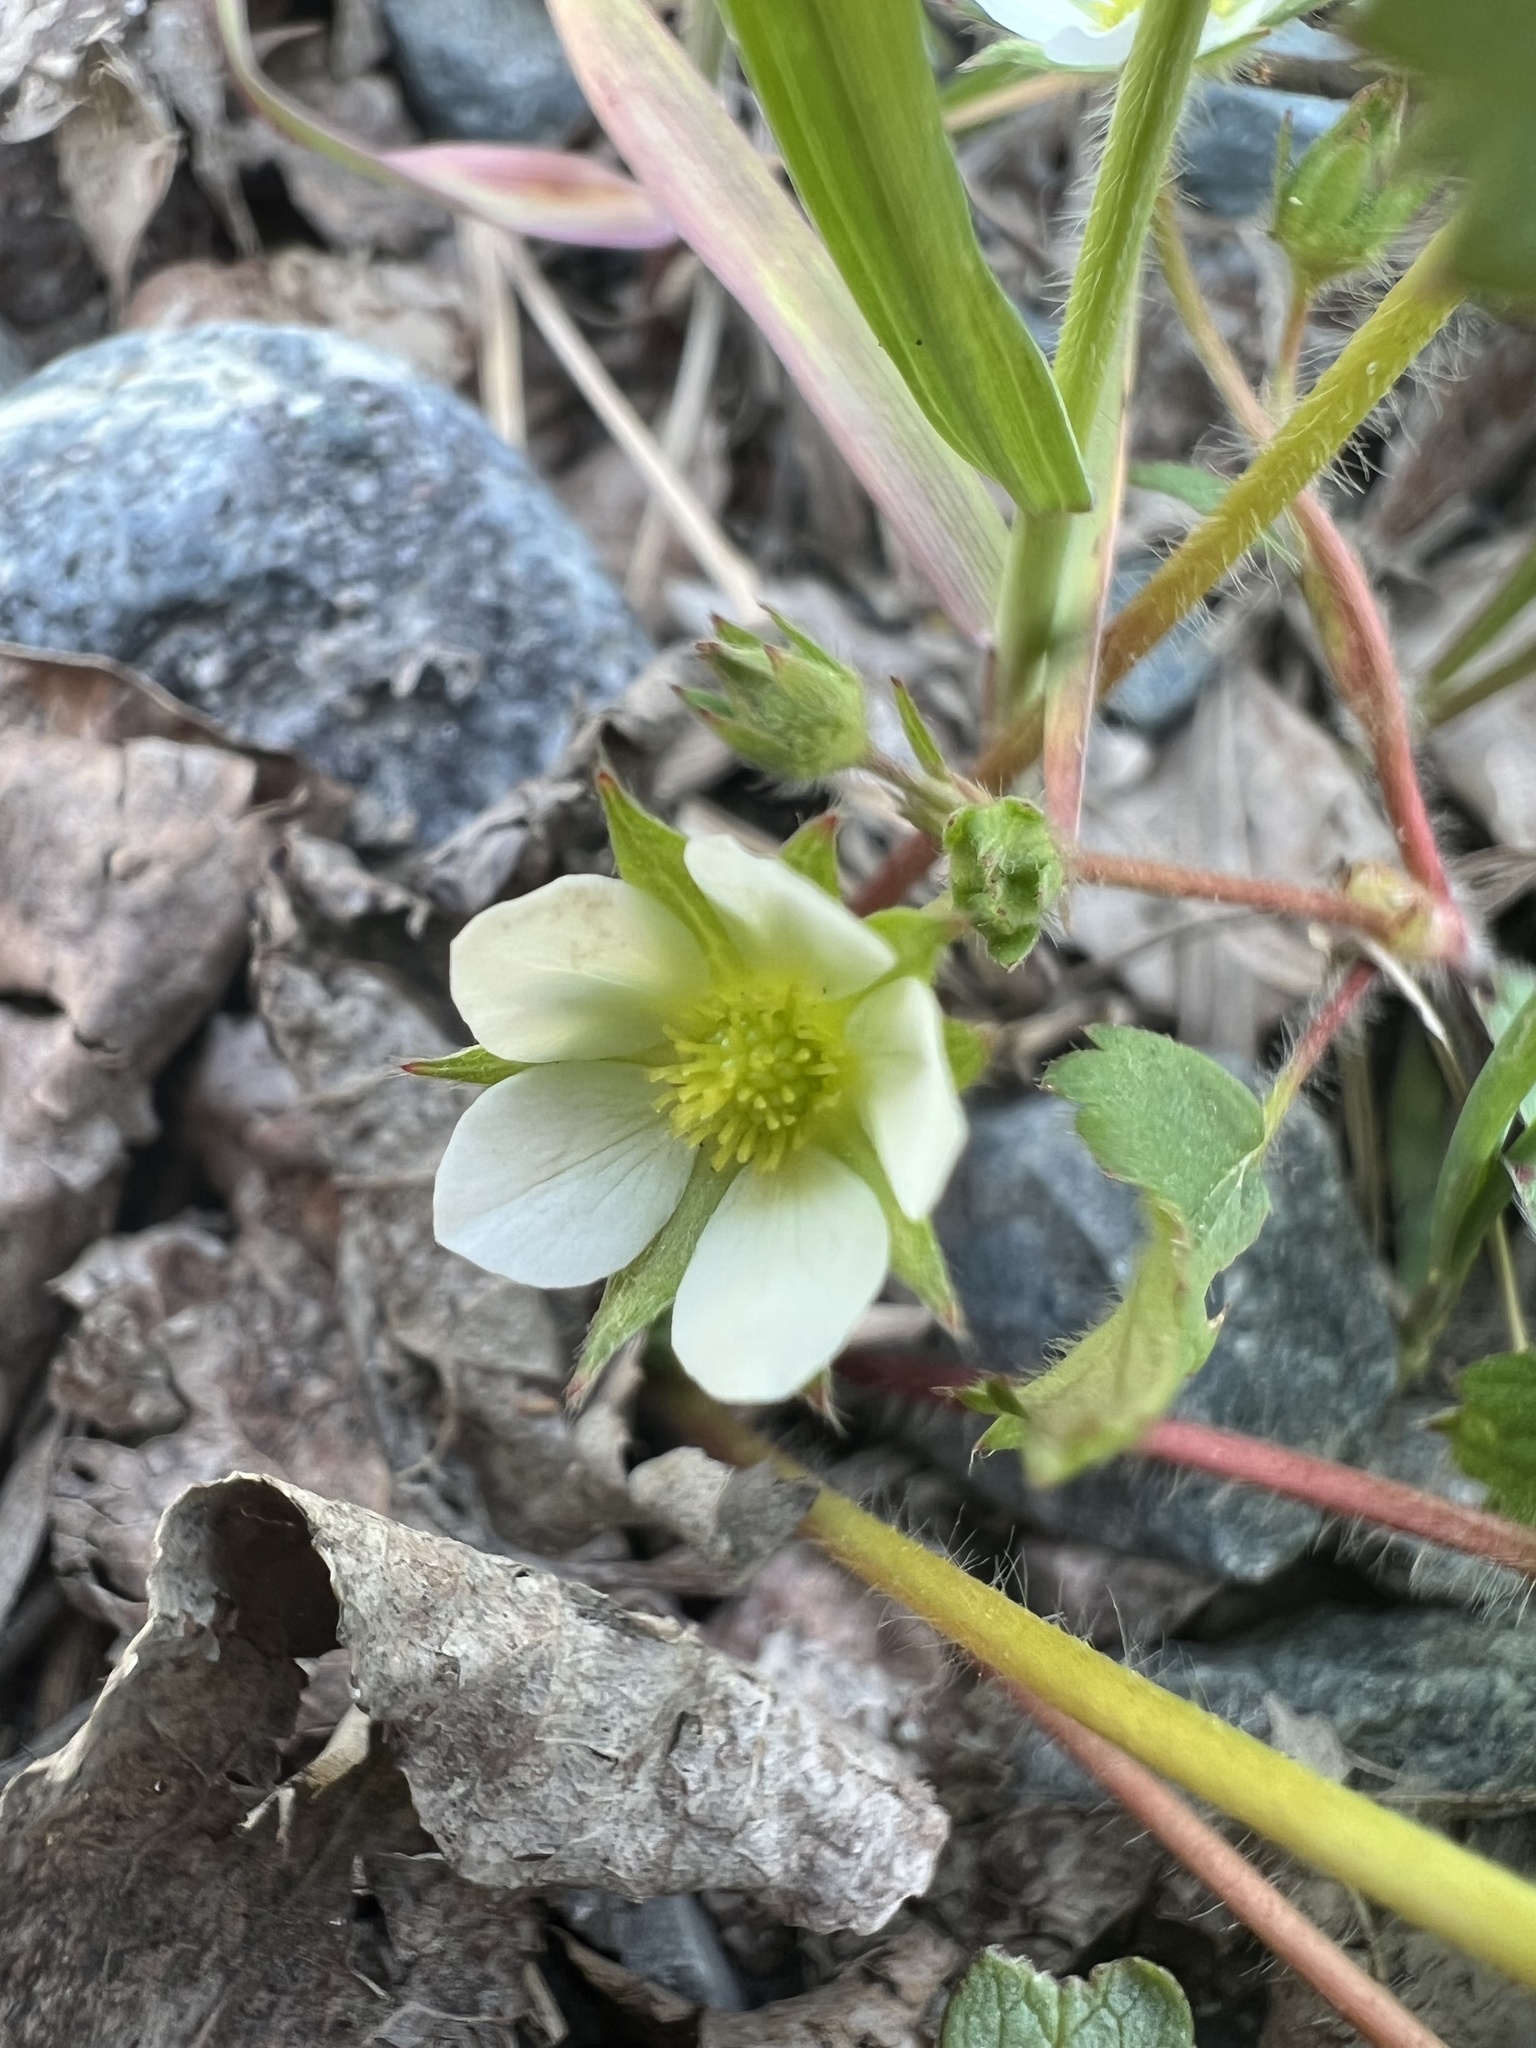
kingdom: Plantae
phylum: Tracheophyta
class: Magnoliopsida
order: Rosales
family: Rosaceae
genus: Fragaria
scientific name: Fragaria virginiana
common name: Thickleaved wild strawberry
